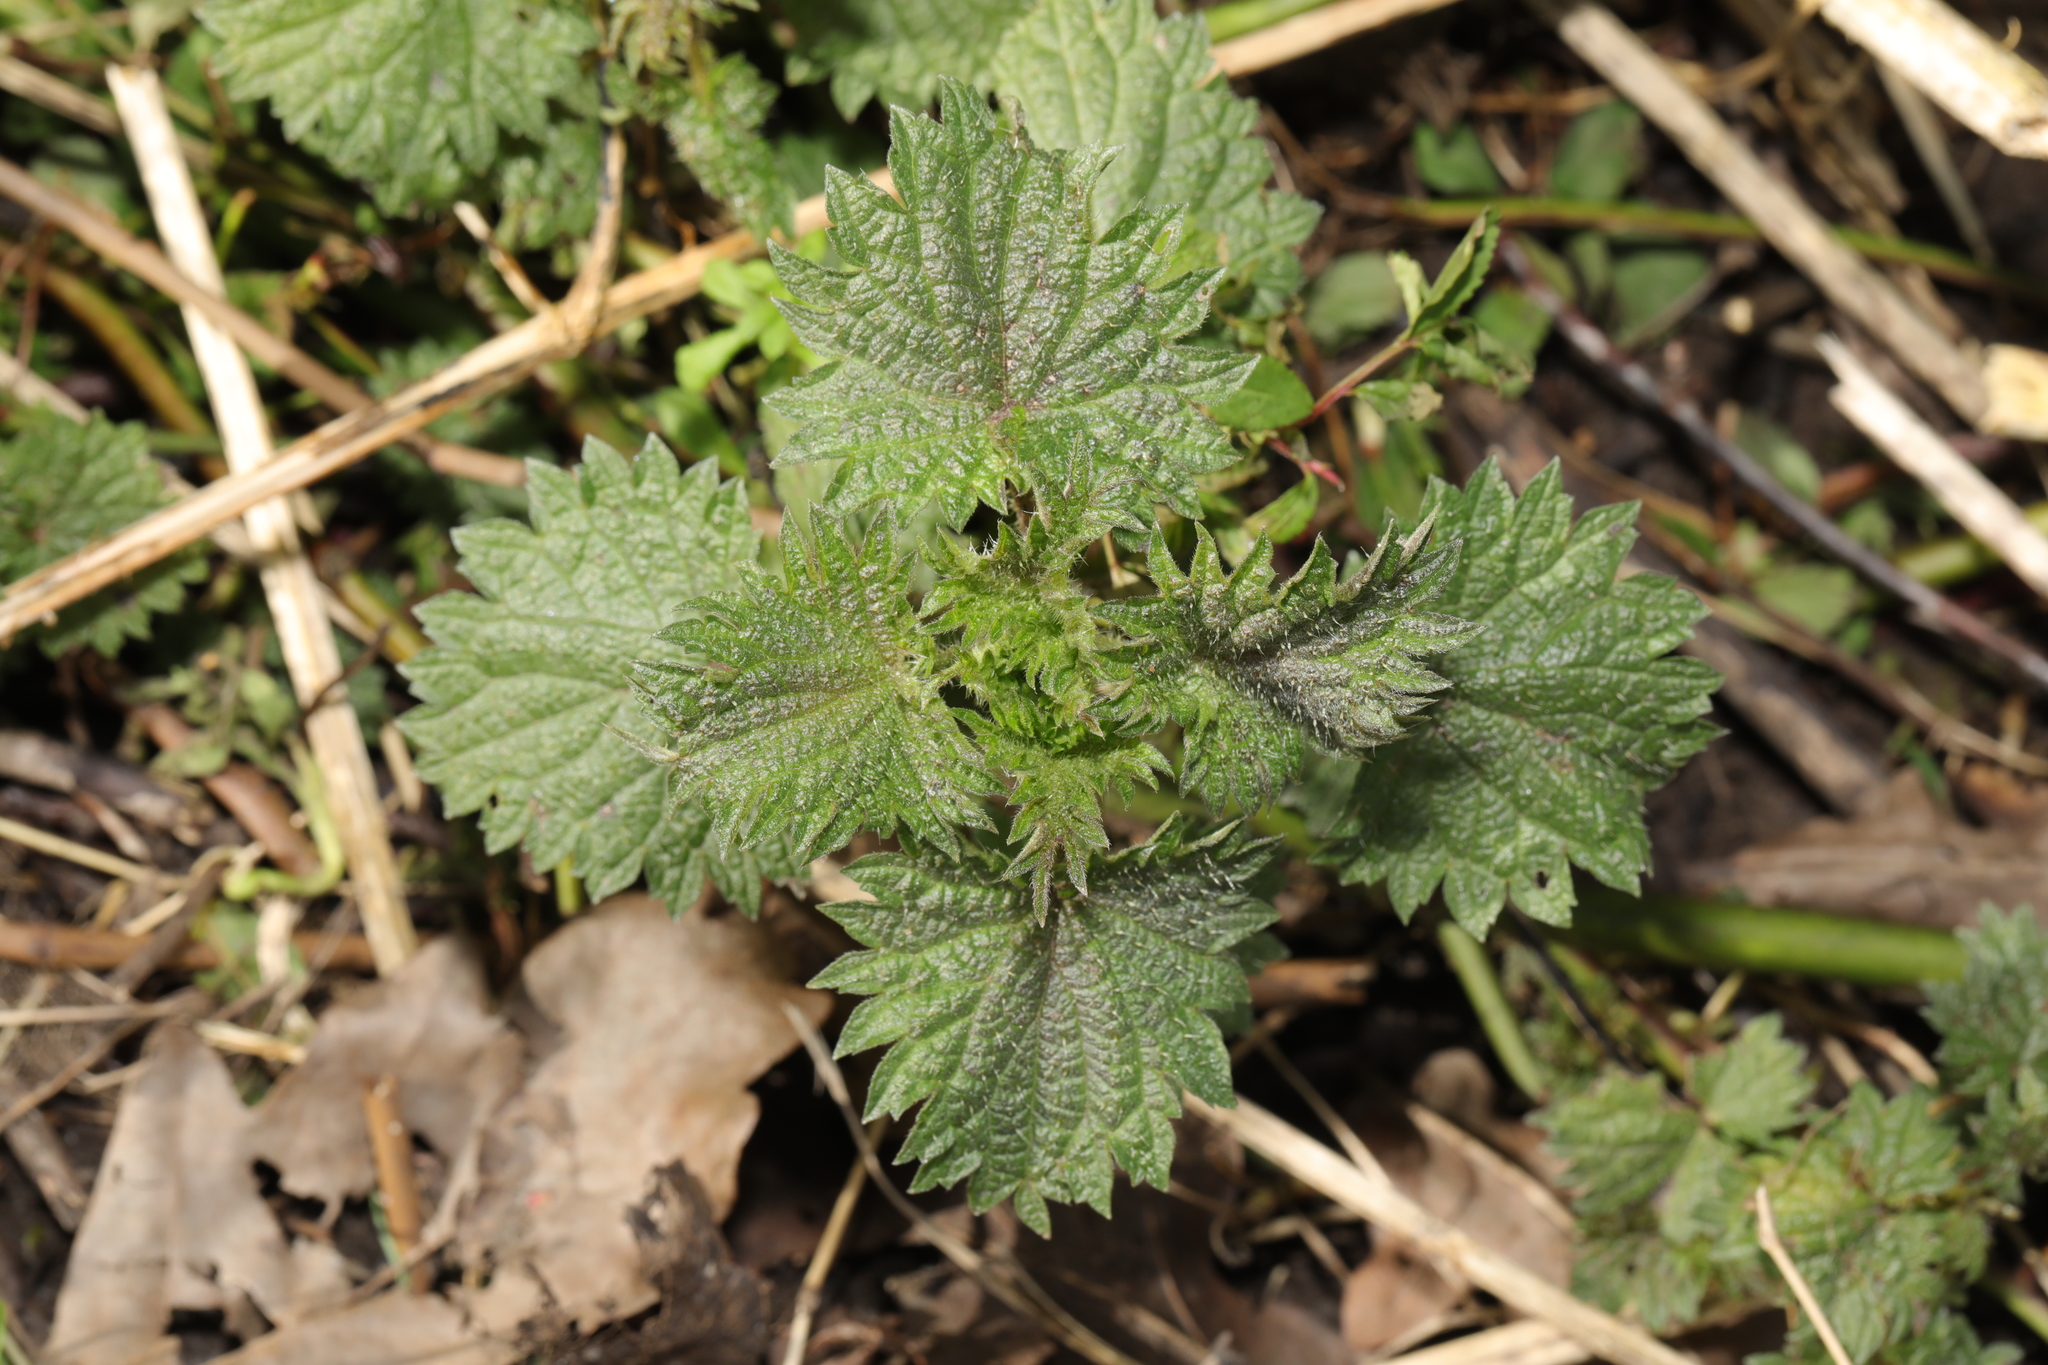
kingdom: Plantae
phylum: Tracheophyta
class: Magnoliopsida
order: Rosales
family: Urticaceae
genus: Urtica
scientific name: Urtica dioica
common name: Common nettle
